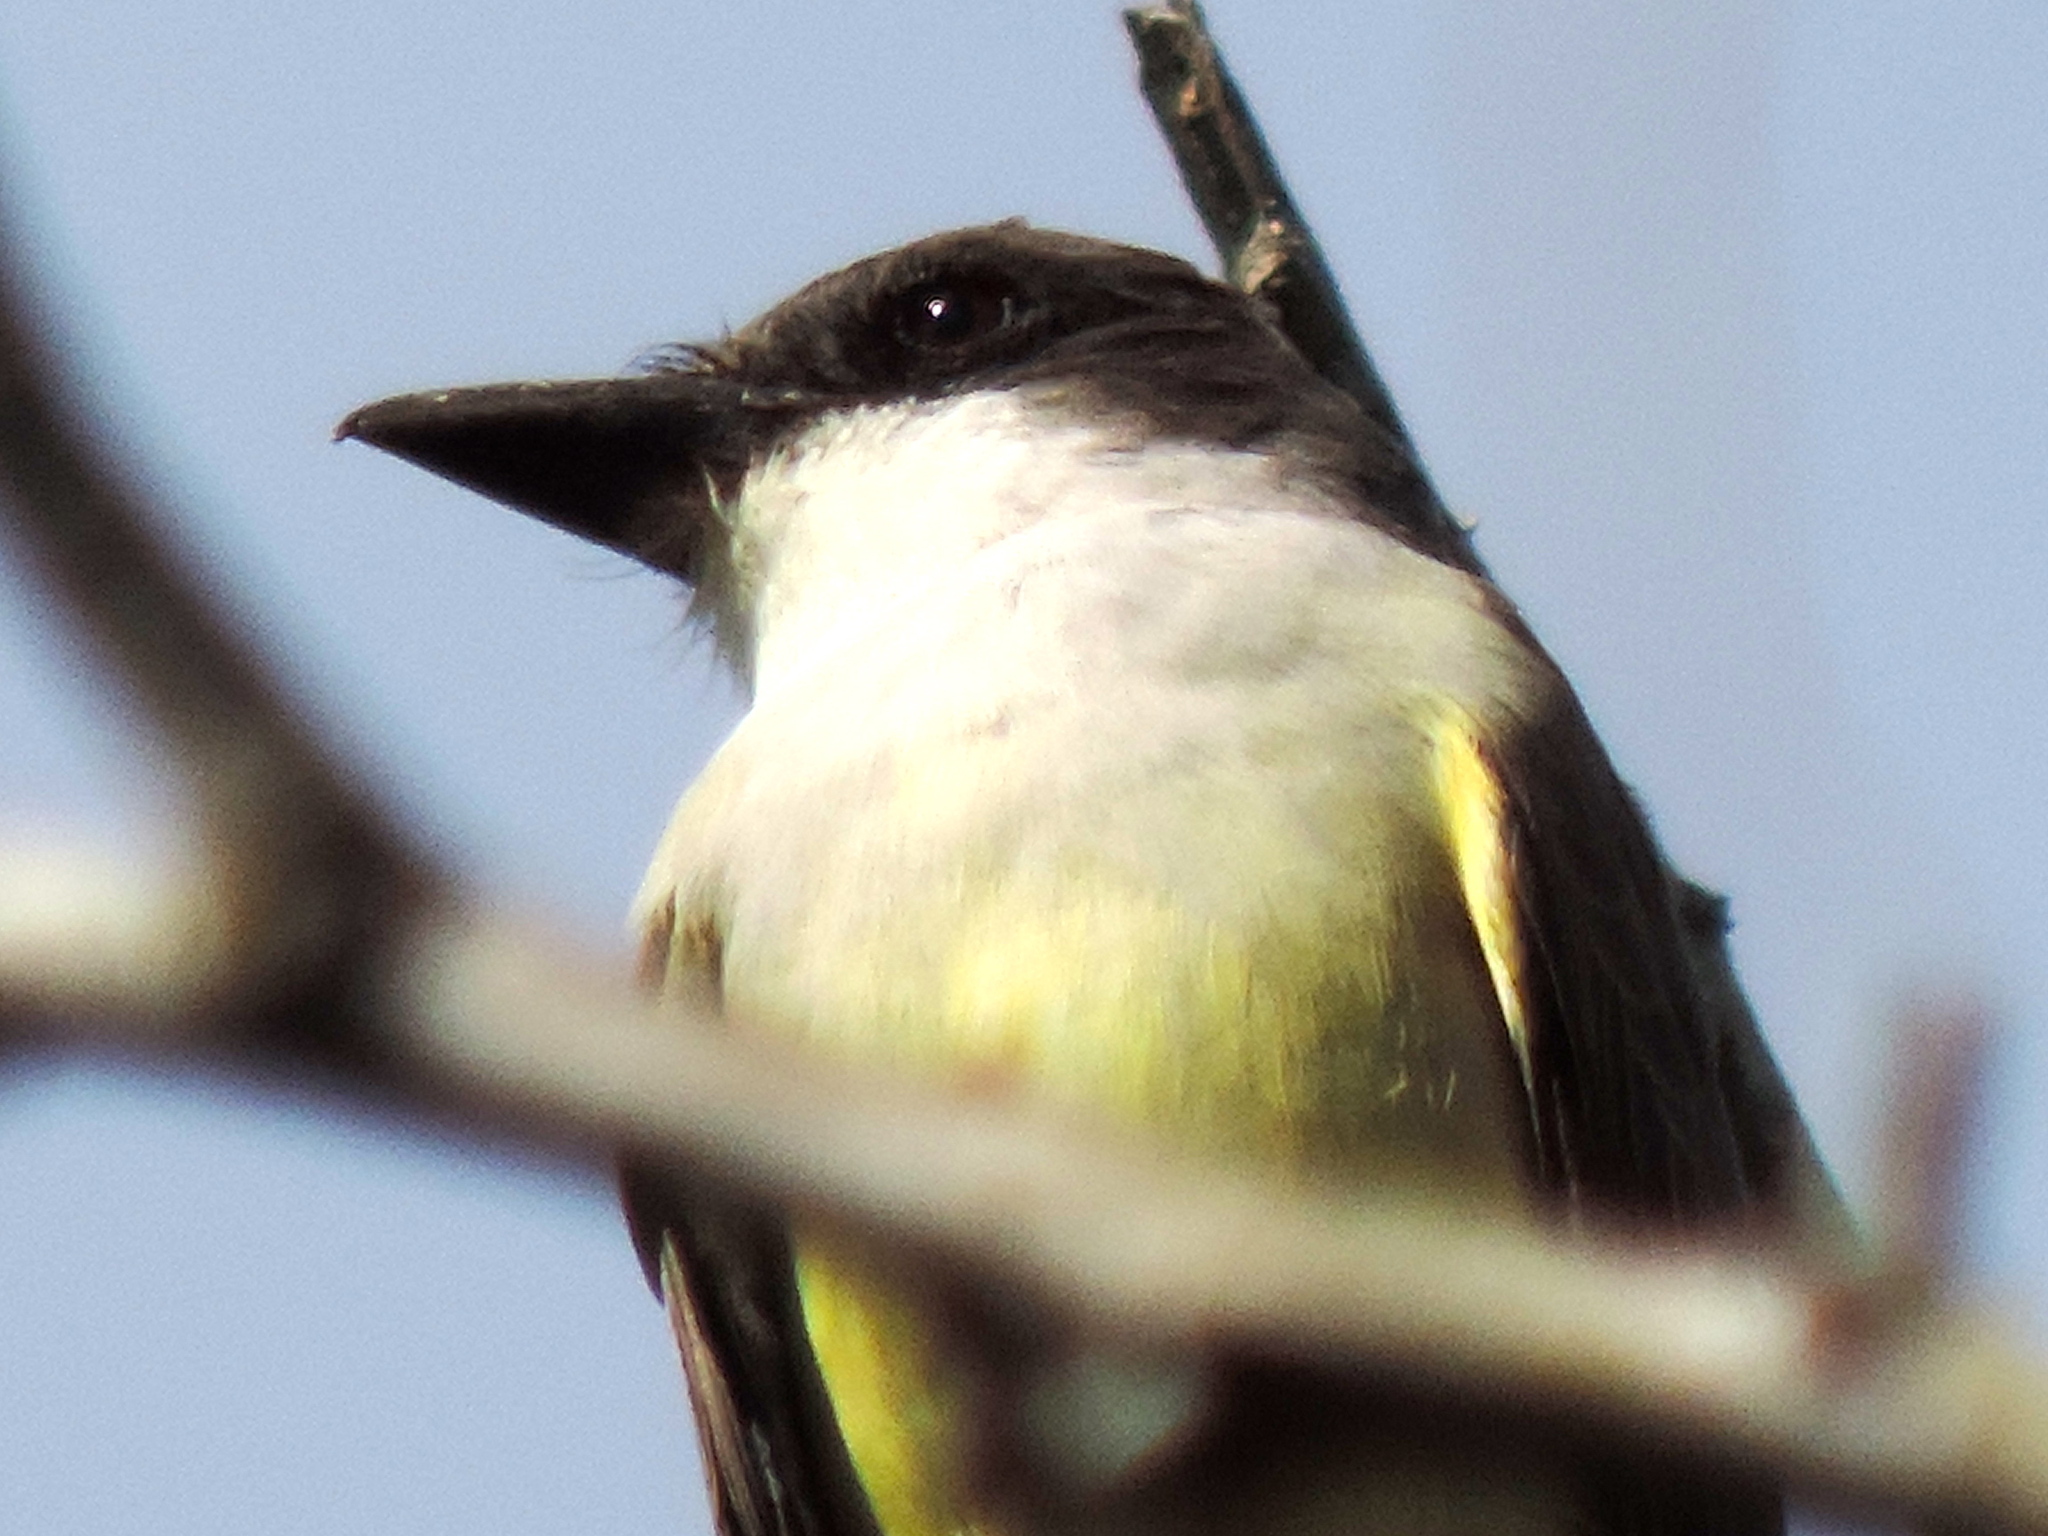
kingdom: Animalia
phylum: Chordata
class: Aves
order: Passeriformes
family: Tyrannidae
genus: Tyrannus
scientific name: Tyrannus crassirostris
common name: Thick-billed kingbird
